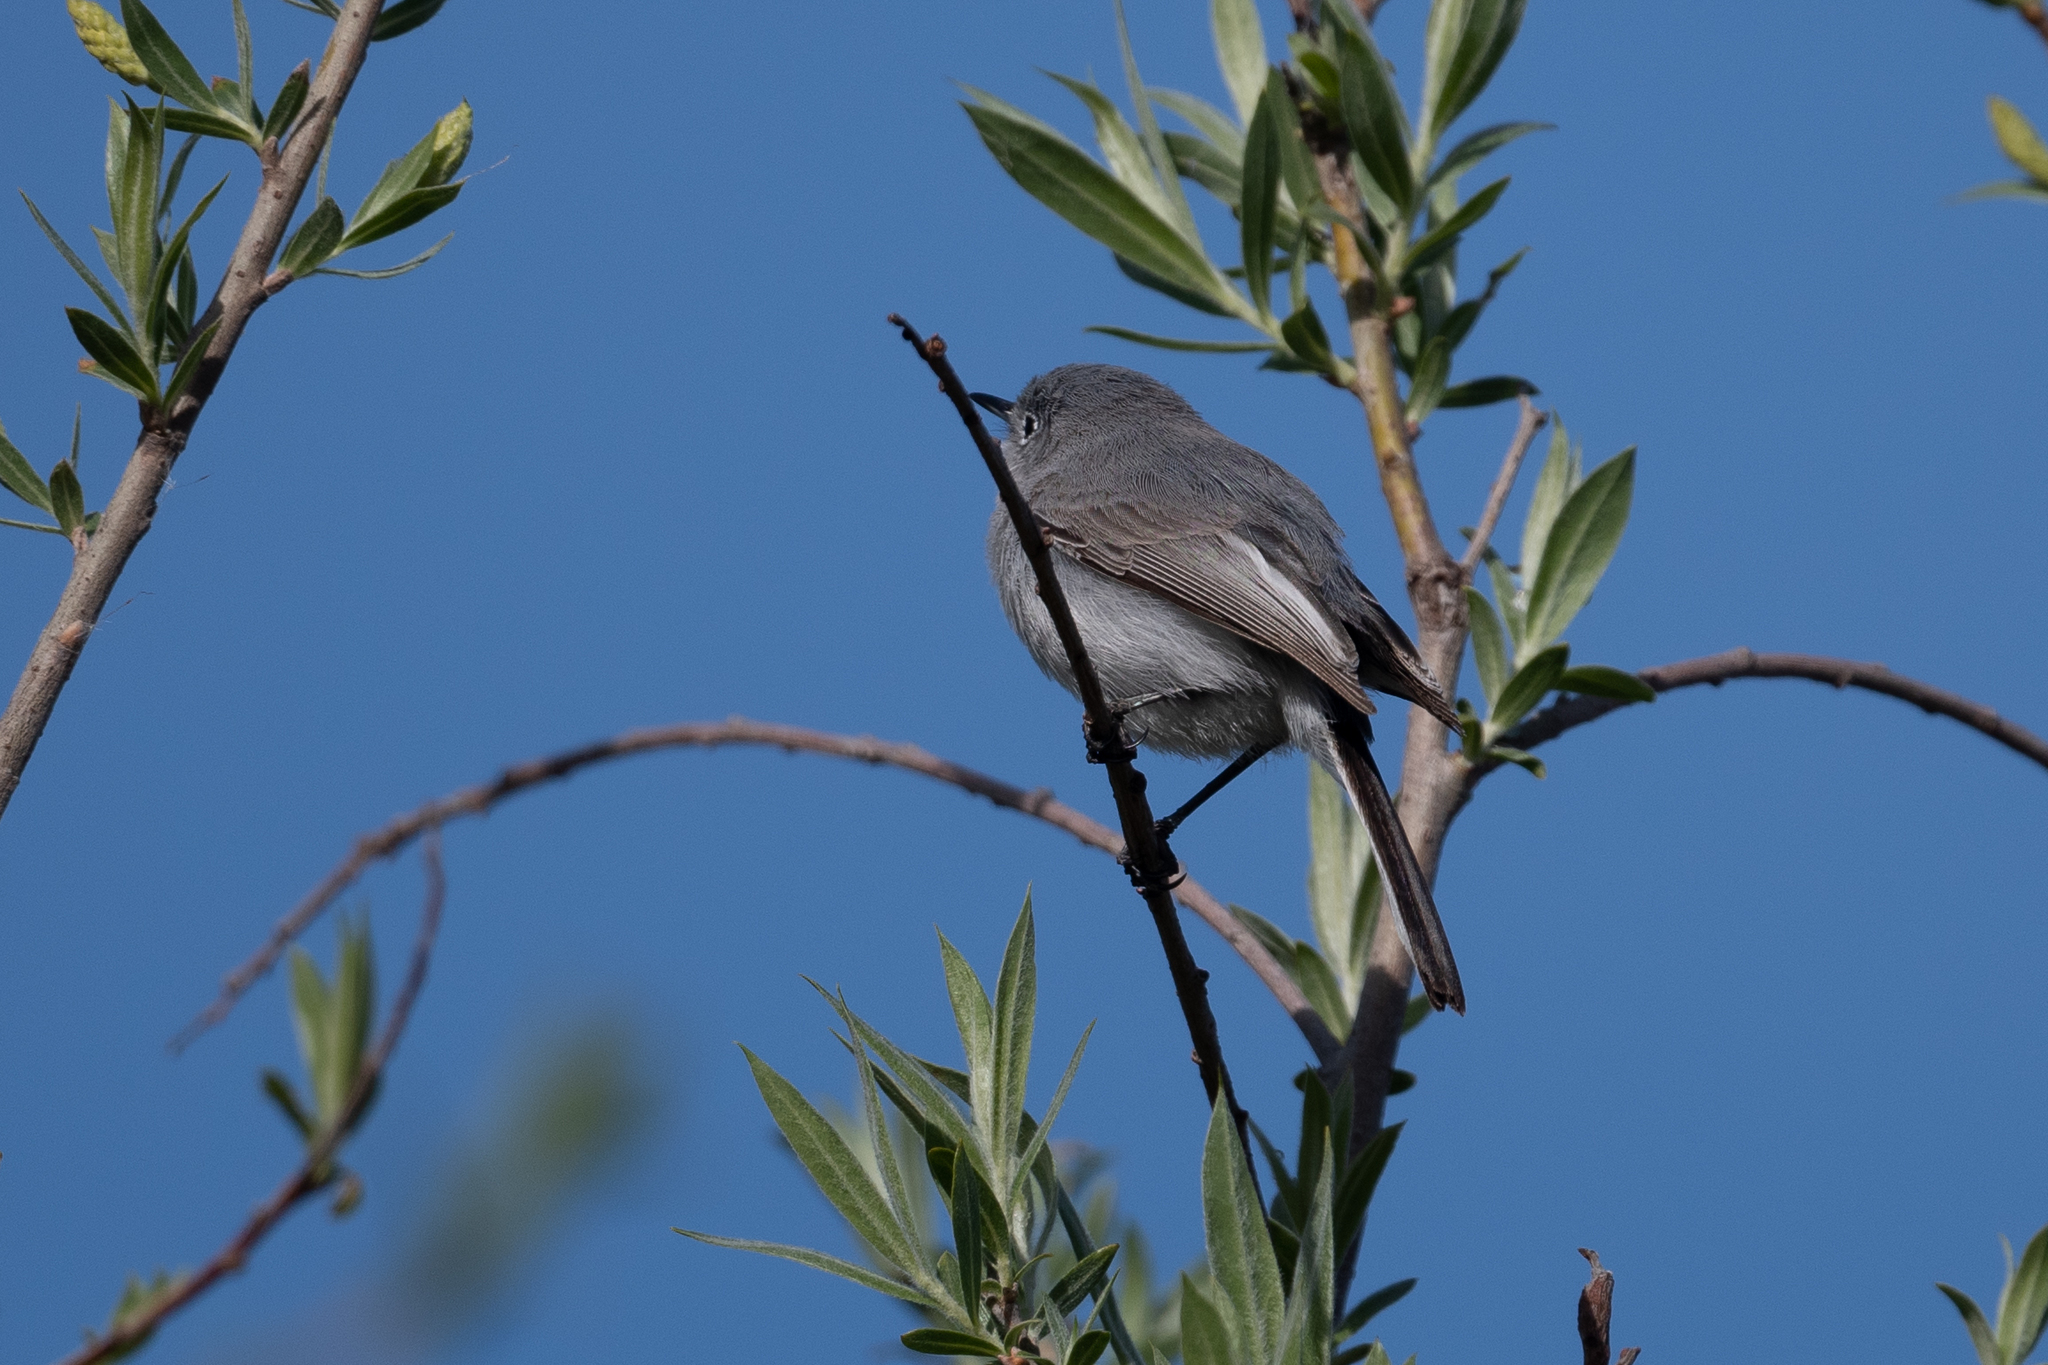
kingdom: Animalia
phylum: Chordata
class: Aves
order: Passeriformes
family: Fringillidae
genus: Haemorhous
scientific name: Haemorhous mexicanus
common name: House finch
